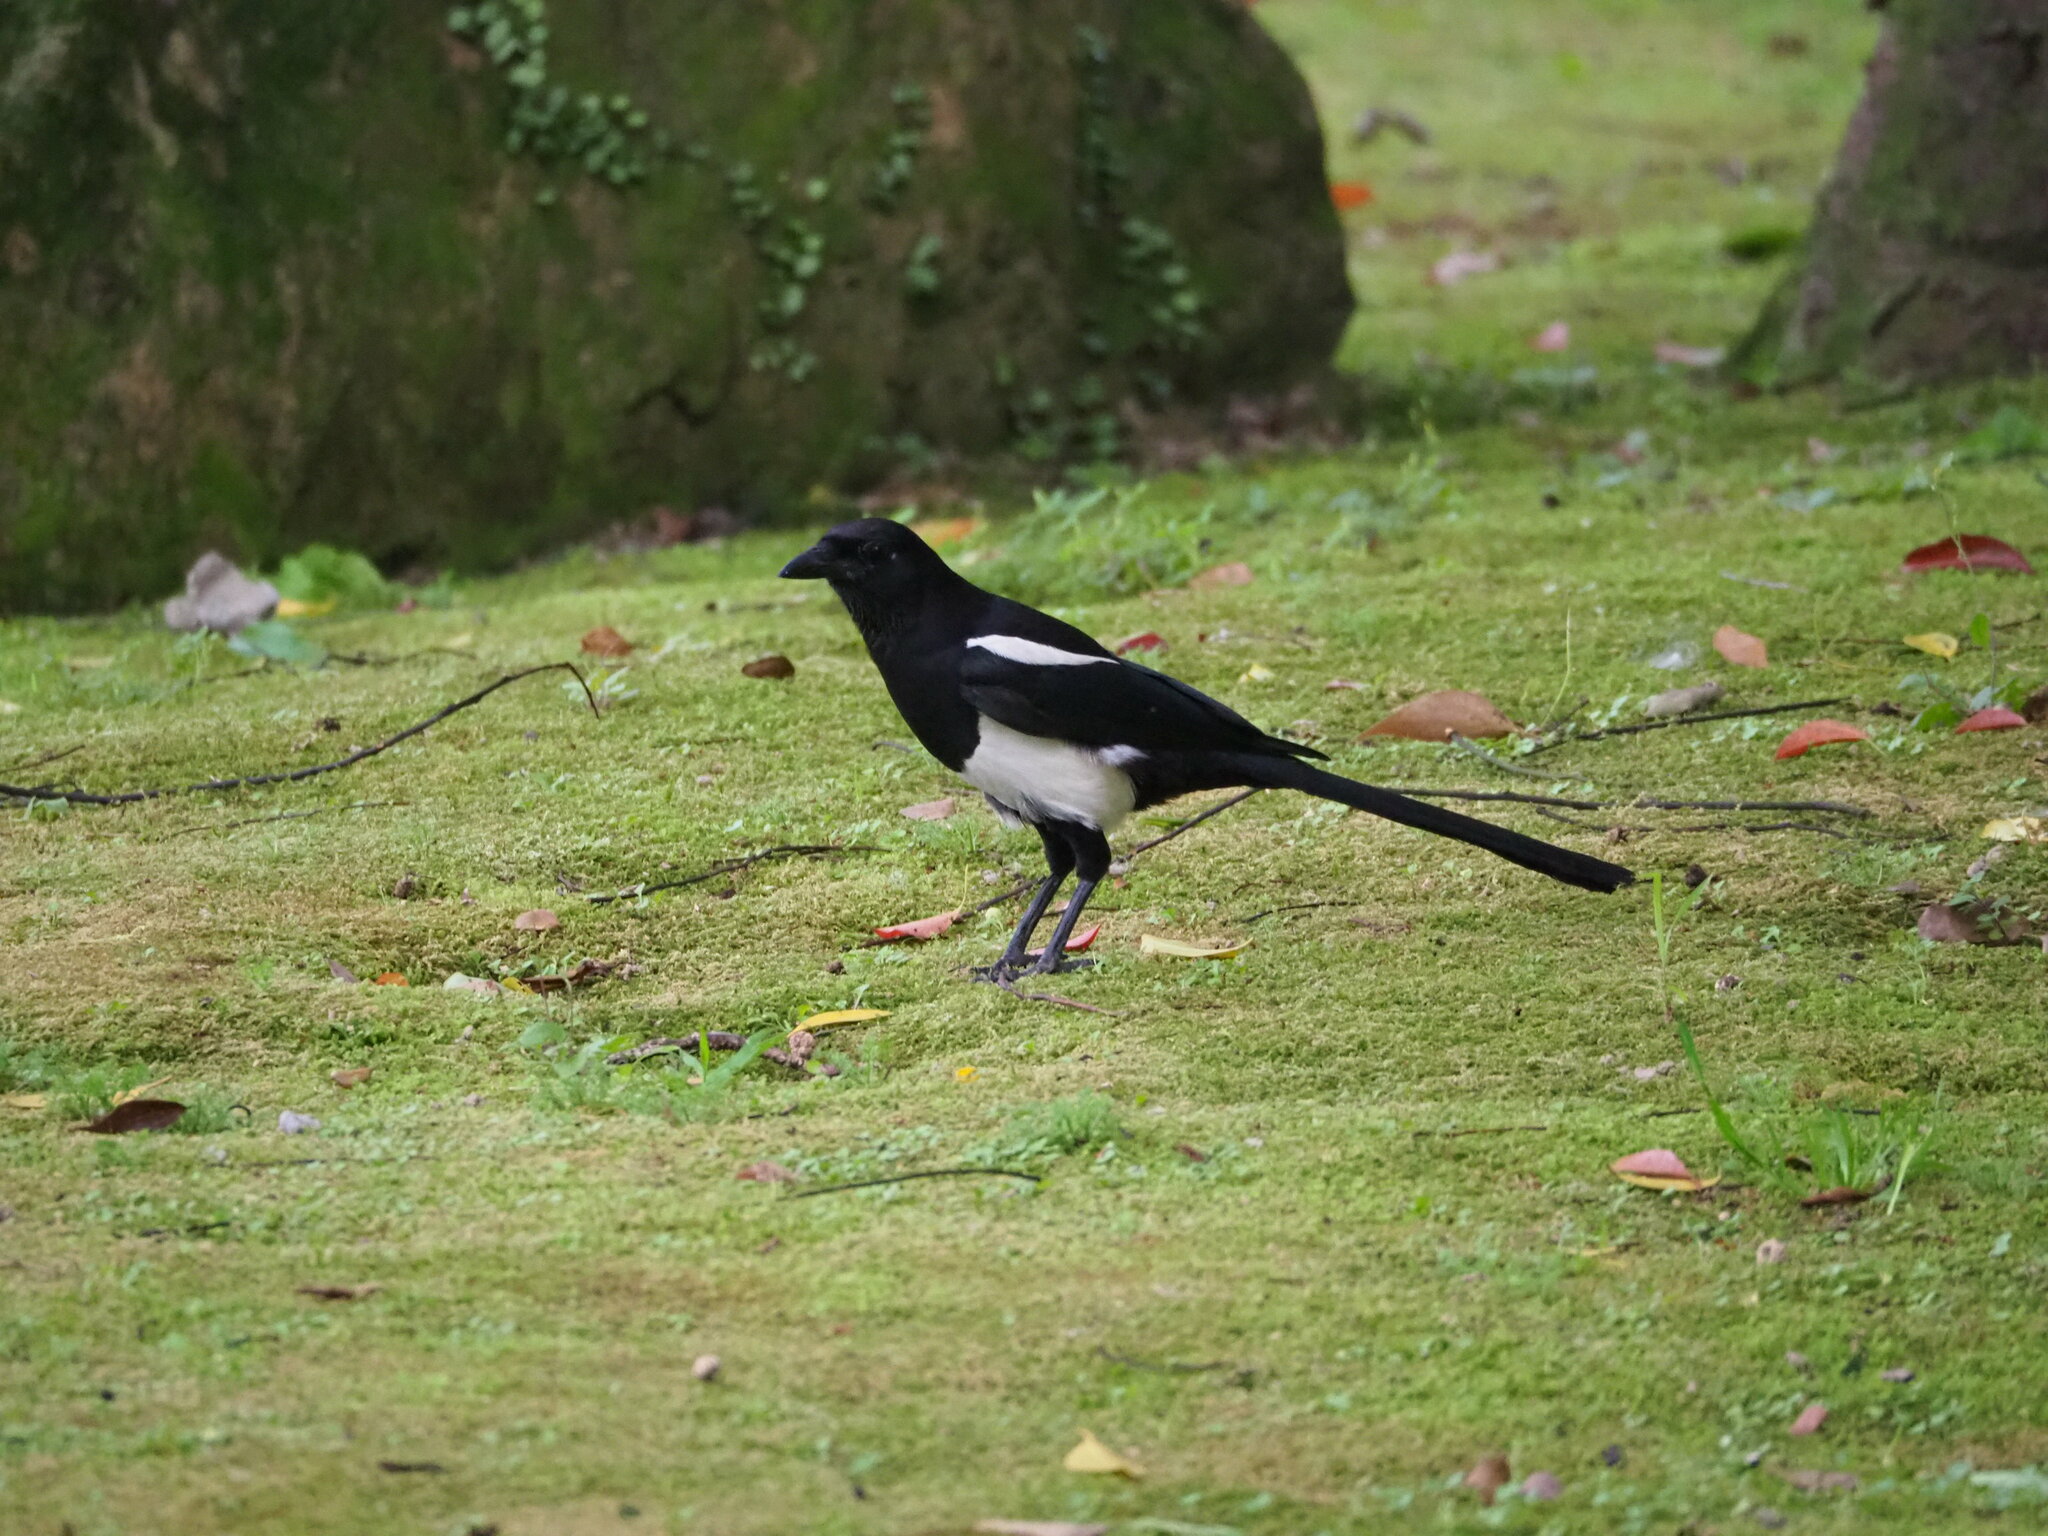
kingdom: Animalia
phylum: Chordata
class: Aves
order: Passeriformes
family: Corvidae
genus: Pica
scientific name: Pica serica
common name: Oriental magpie
